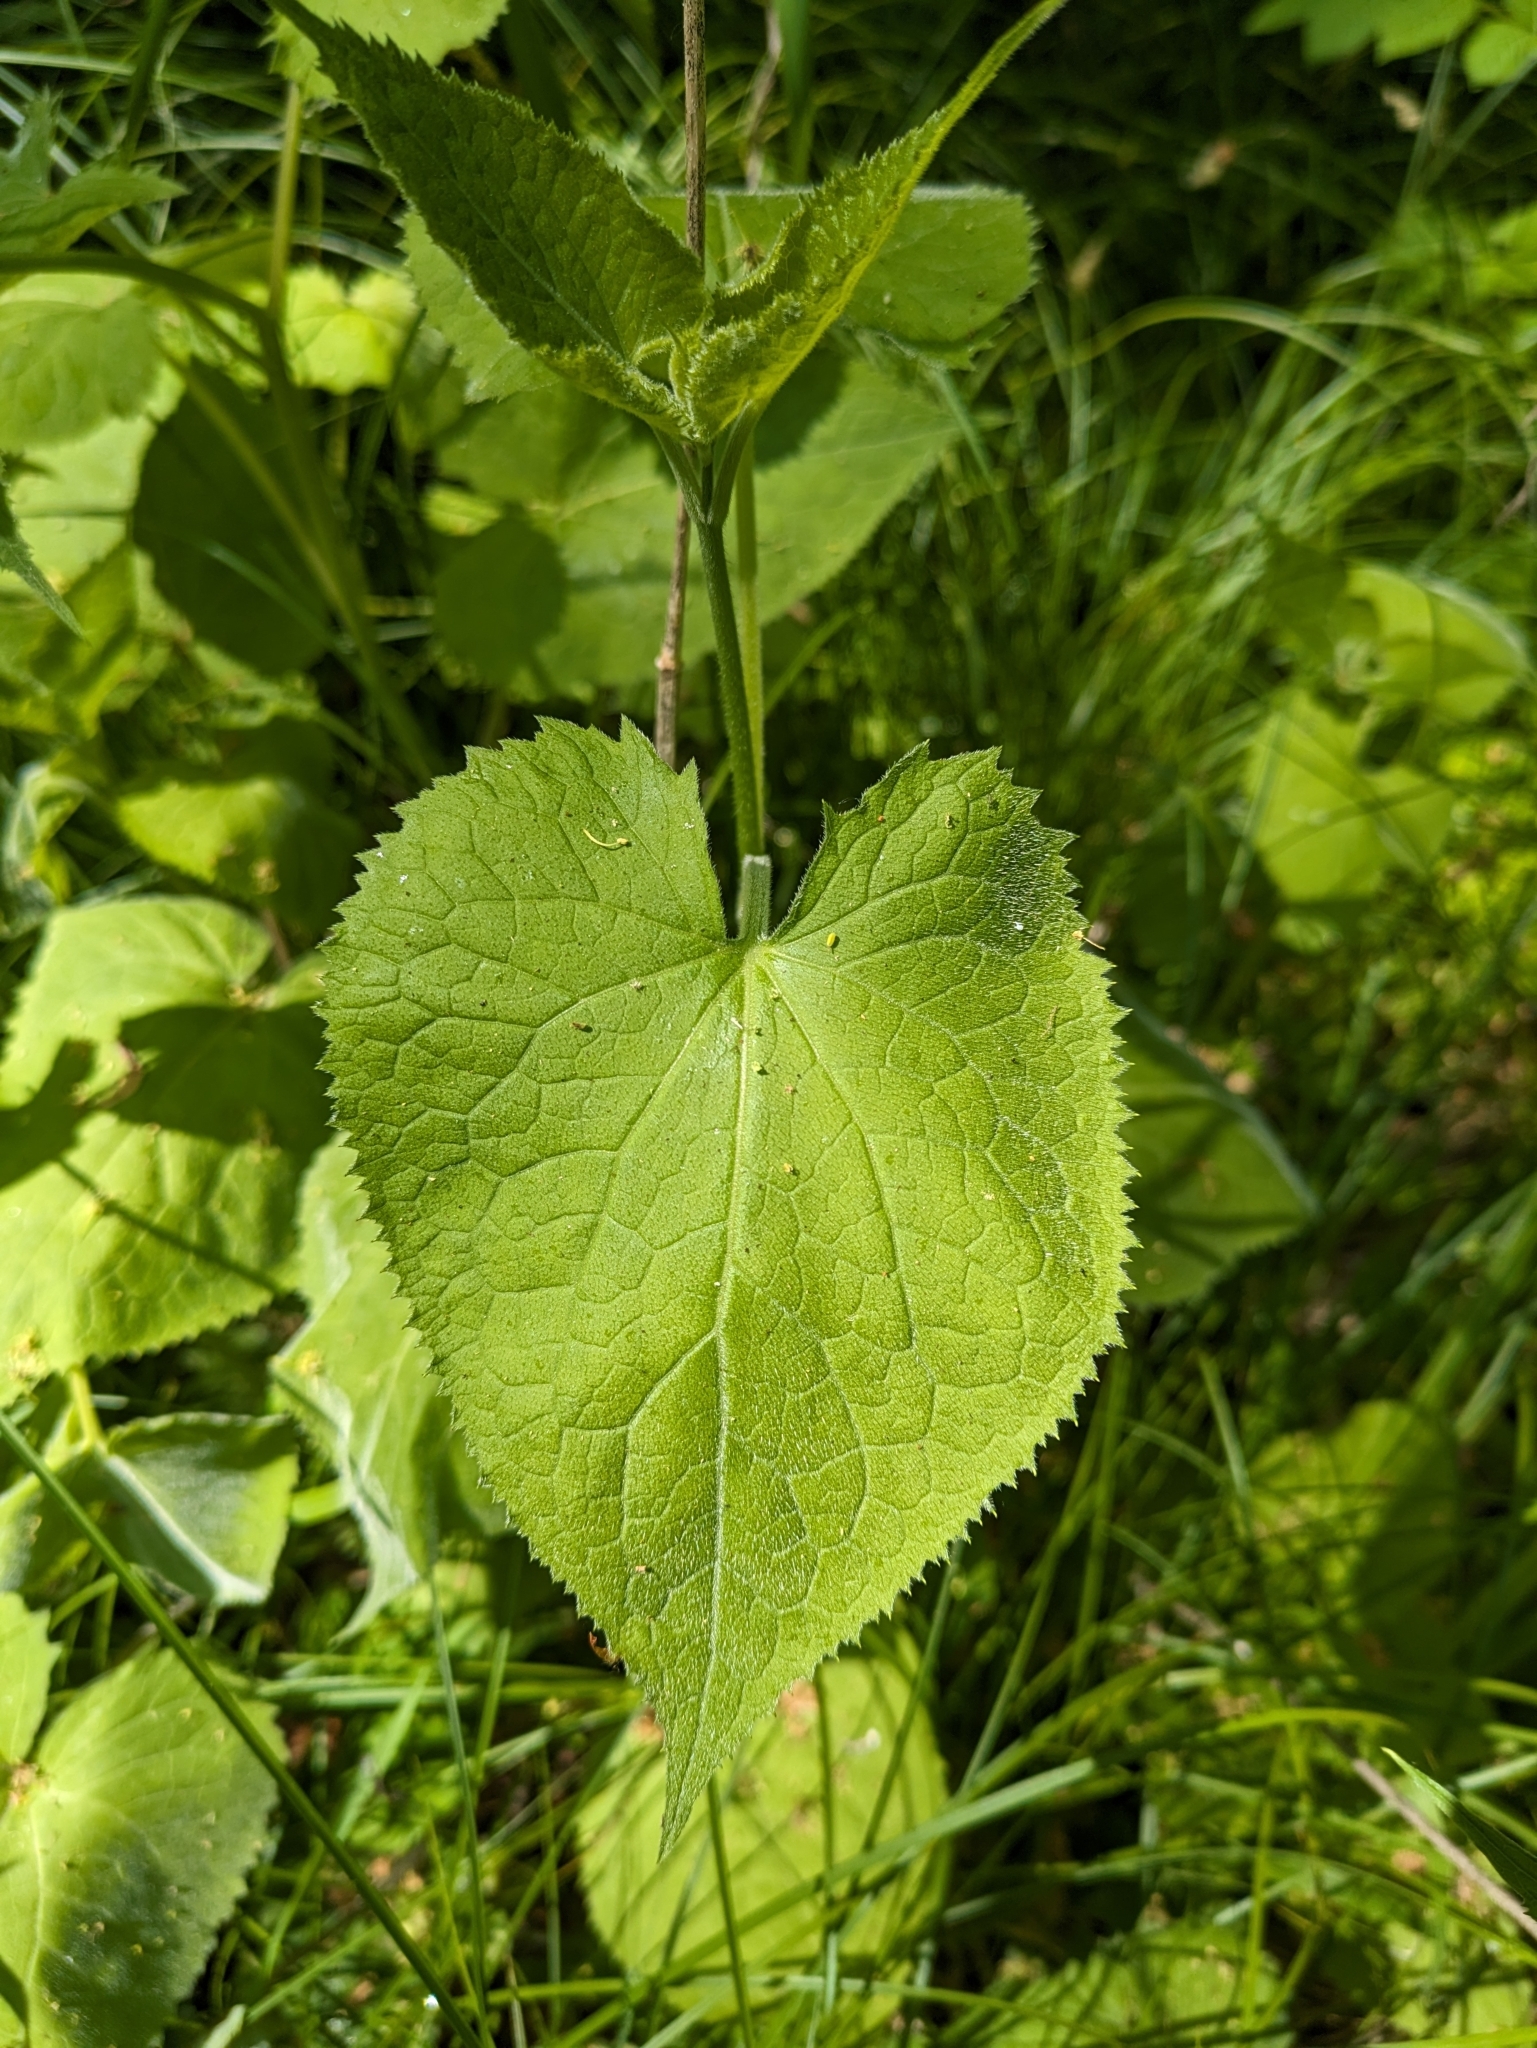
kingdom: Plantae
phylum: Tracheophyta
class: Magnoliopsida
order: Brassicales
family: Brassicaceae
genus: Lunaria
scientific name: Lunaria rediviva
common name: Perennial honesty
